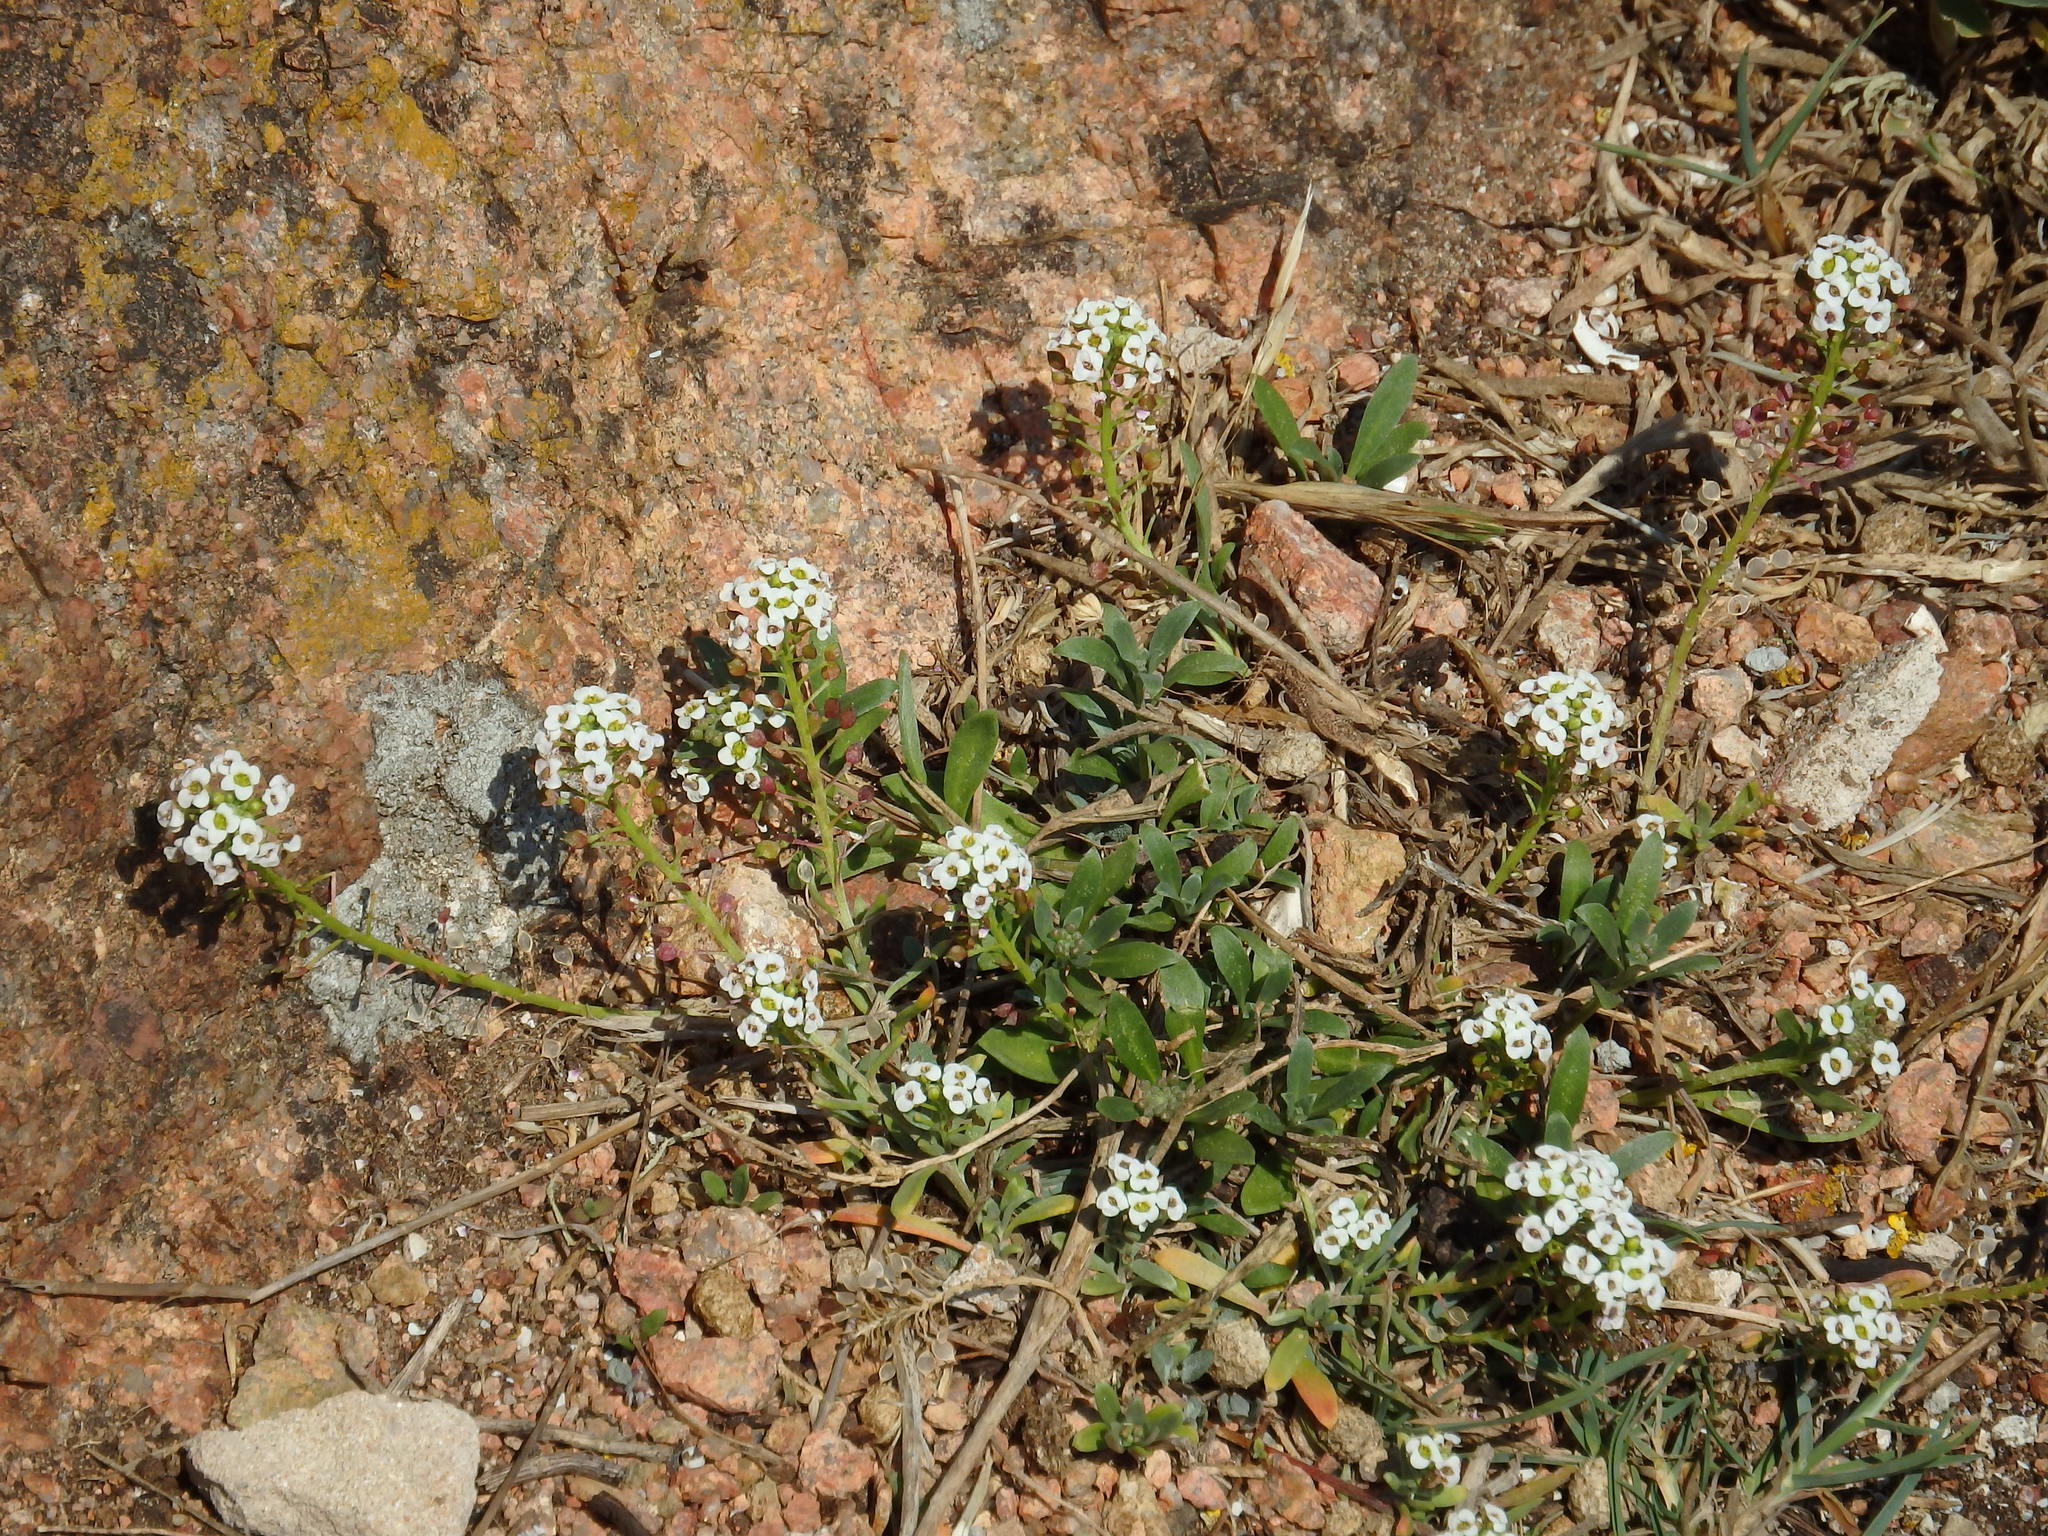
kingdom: Plantae
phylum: Tracheophyta
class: Magnoliopsida
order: Brassicales
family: Brassicaceae
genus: Lobularia
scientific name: Lobularia maritima
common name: Sweet alison
